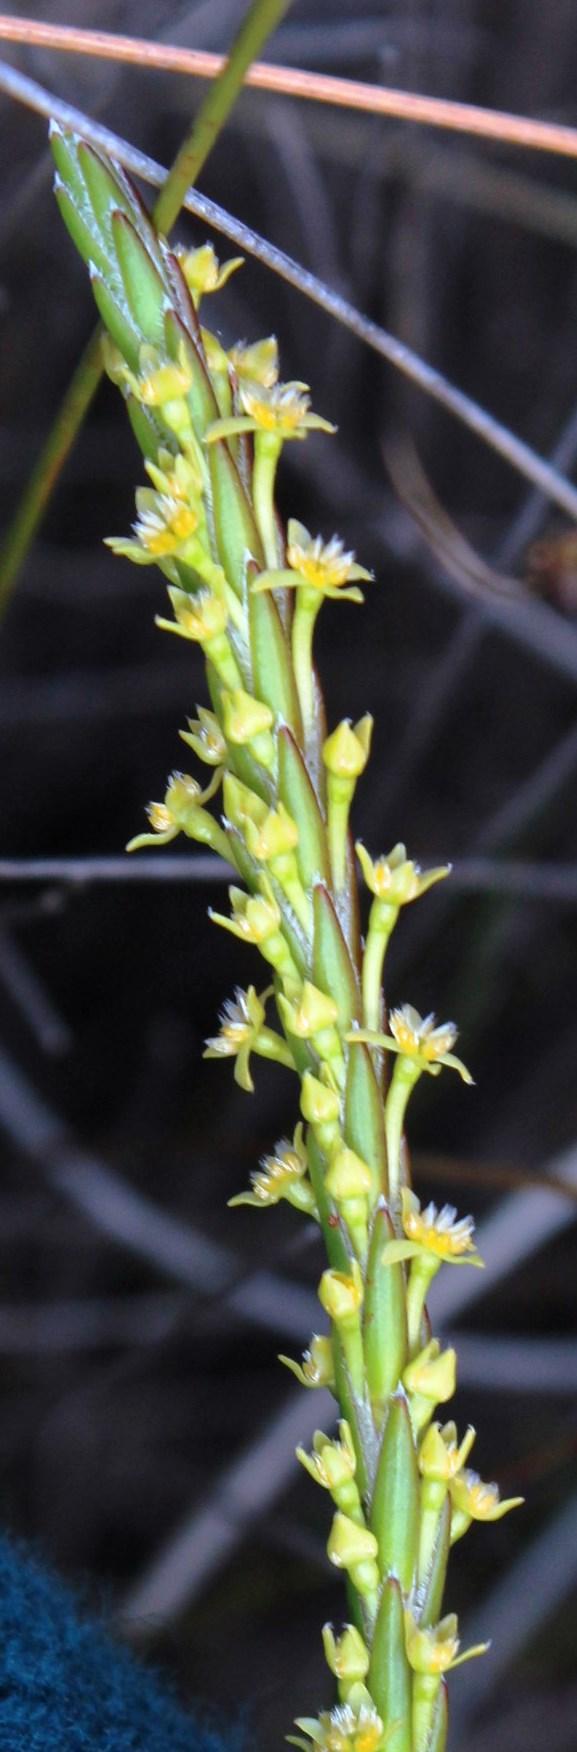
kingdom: Plantae
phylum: Tracheophyta
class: Magnoliopsida
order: Malvales
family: Thymelaeaceae
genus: Struthiola
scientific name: Struthiola parviflora
